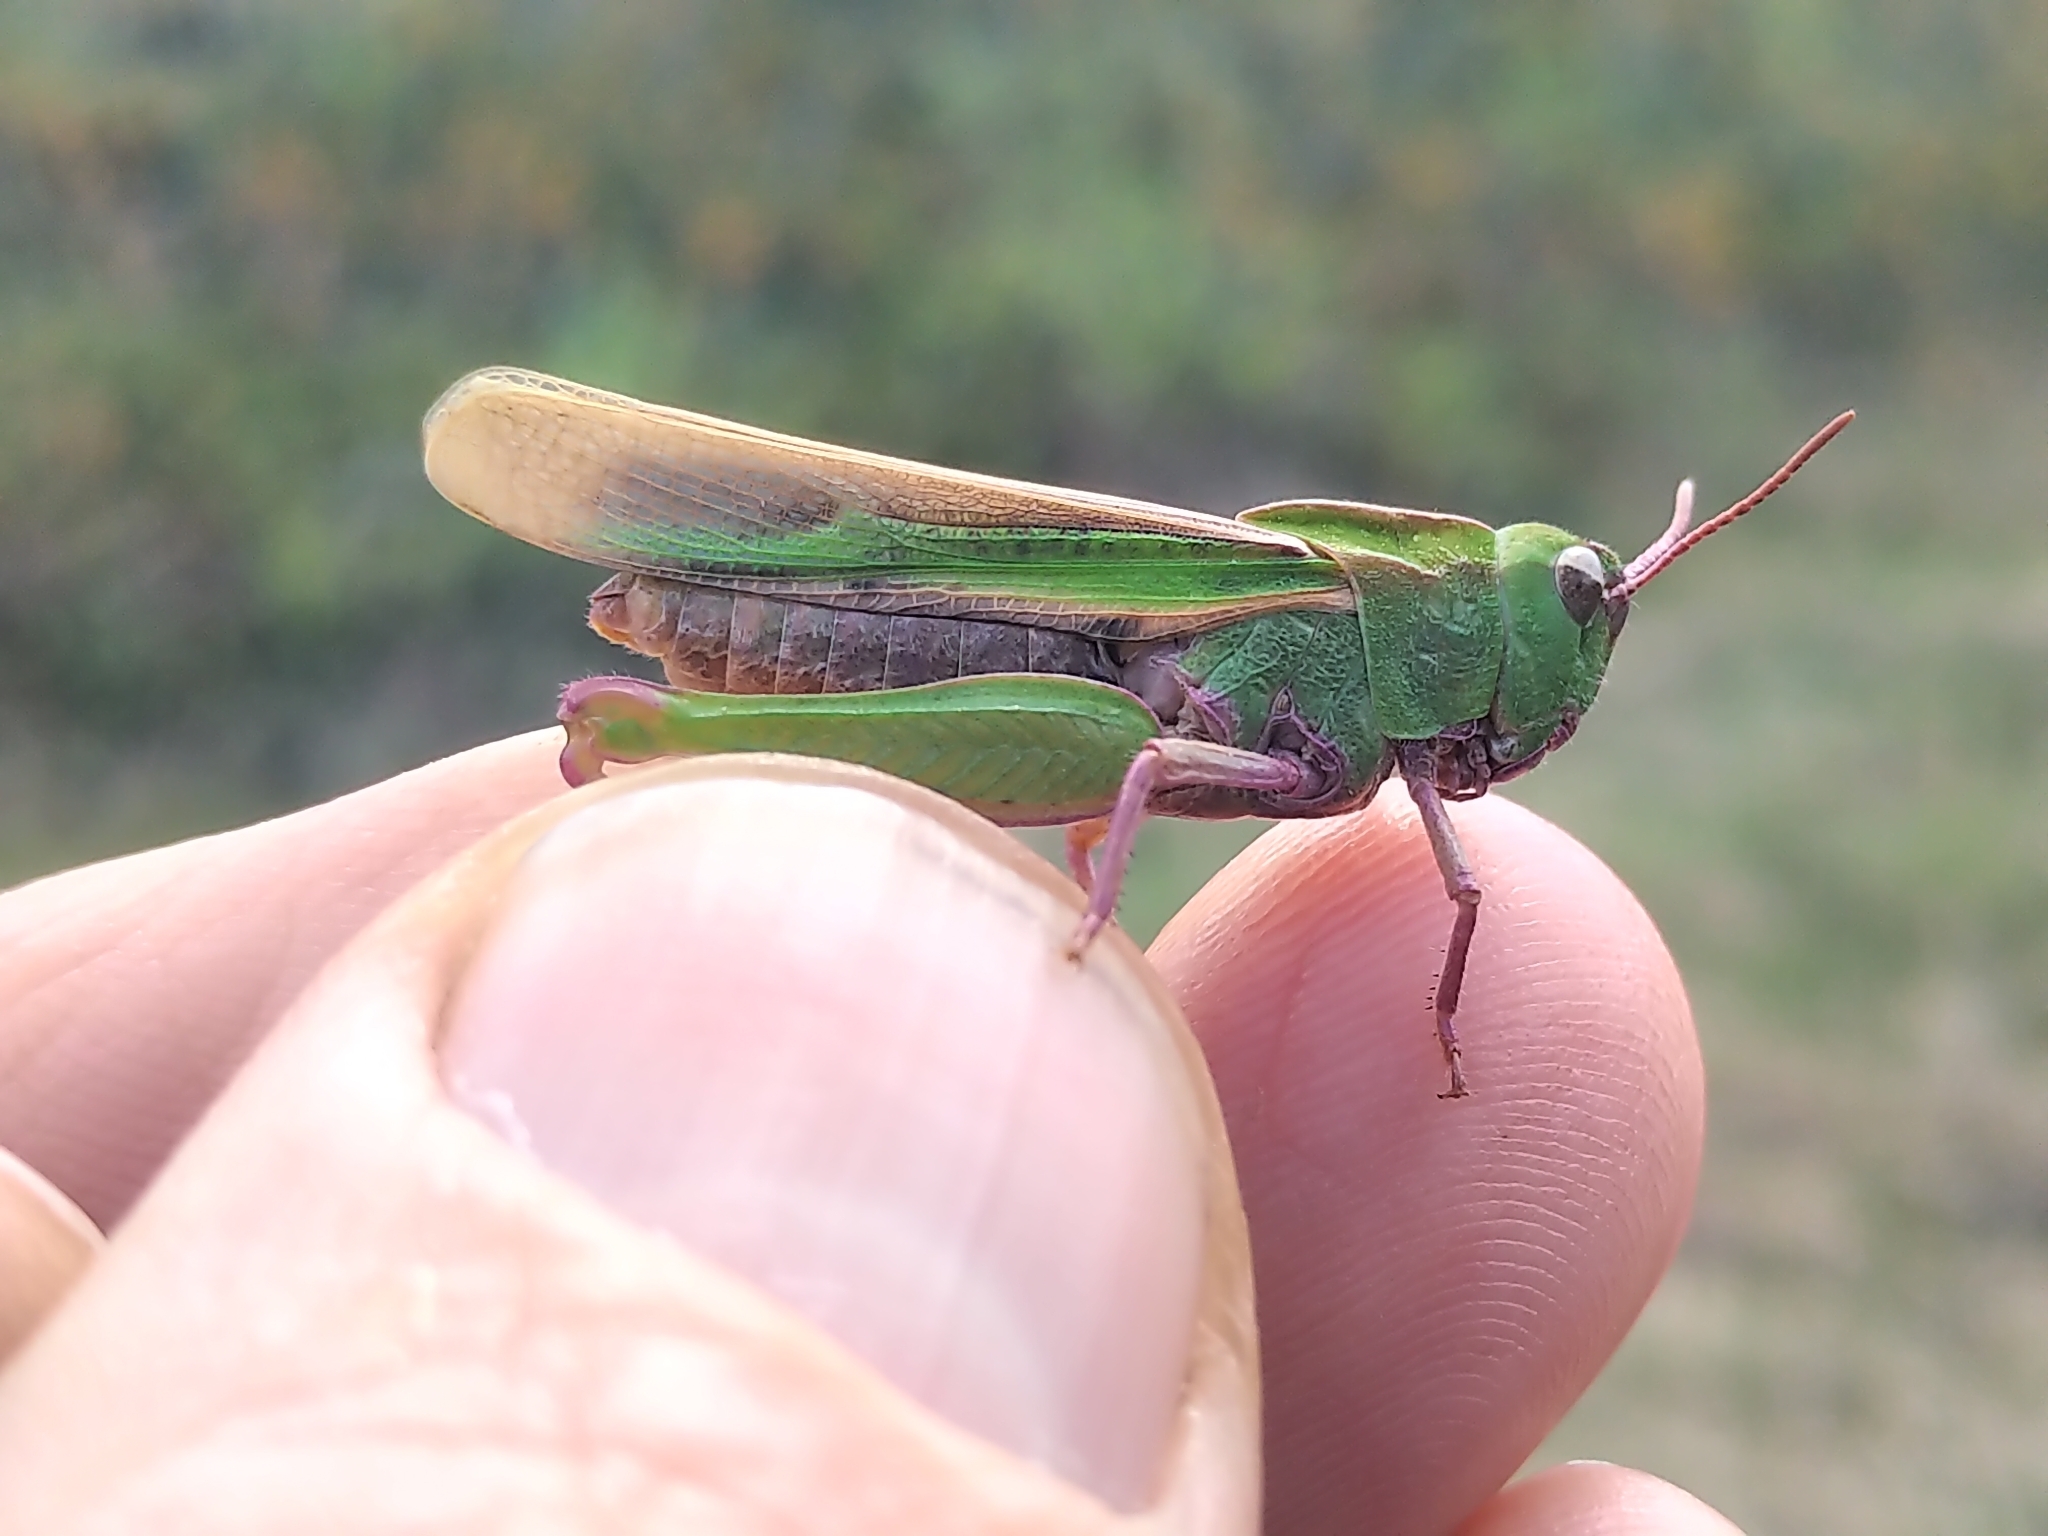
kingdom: Animalia
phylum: Arthropoda
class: Insecta
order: Orthoptera
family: Acrididae
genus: Chortophaga
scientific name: Chortophaga viridifasciata
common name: Green-striped grasshopper
